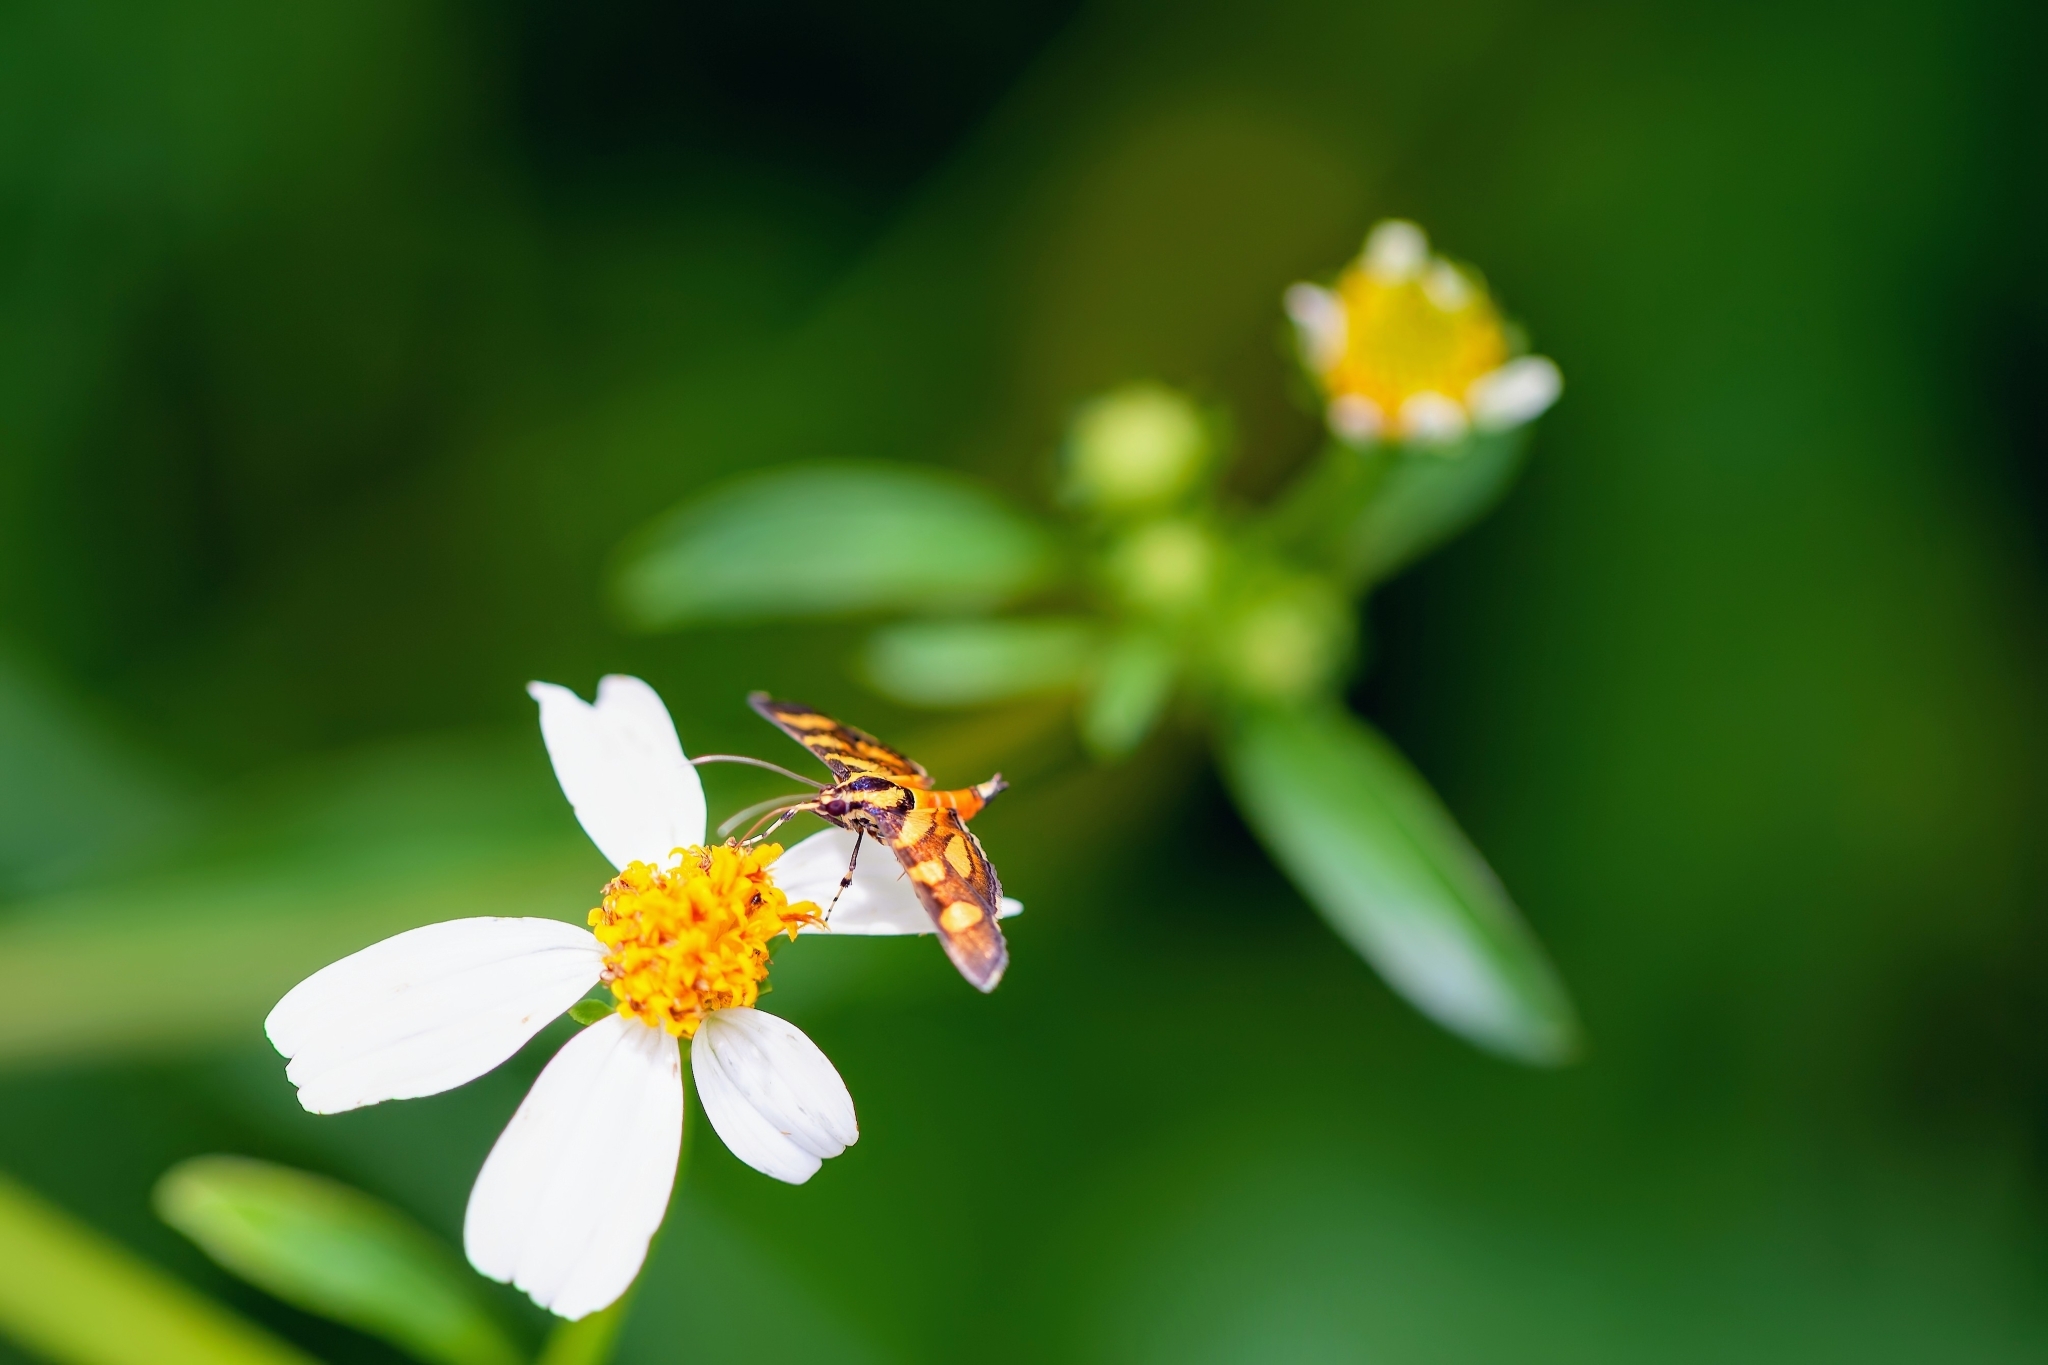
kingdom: Animalia
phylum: Arthropoda
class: Insecta
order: Lepidoptera
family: Crambidae
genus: Syngamia
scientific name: Syngamia florella
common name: Orange-spotted flower moth
